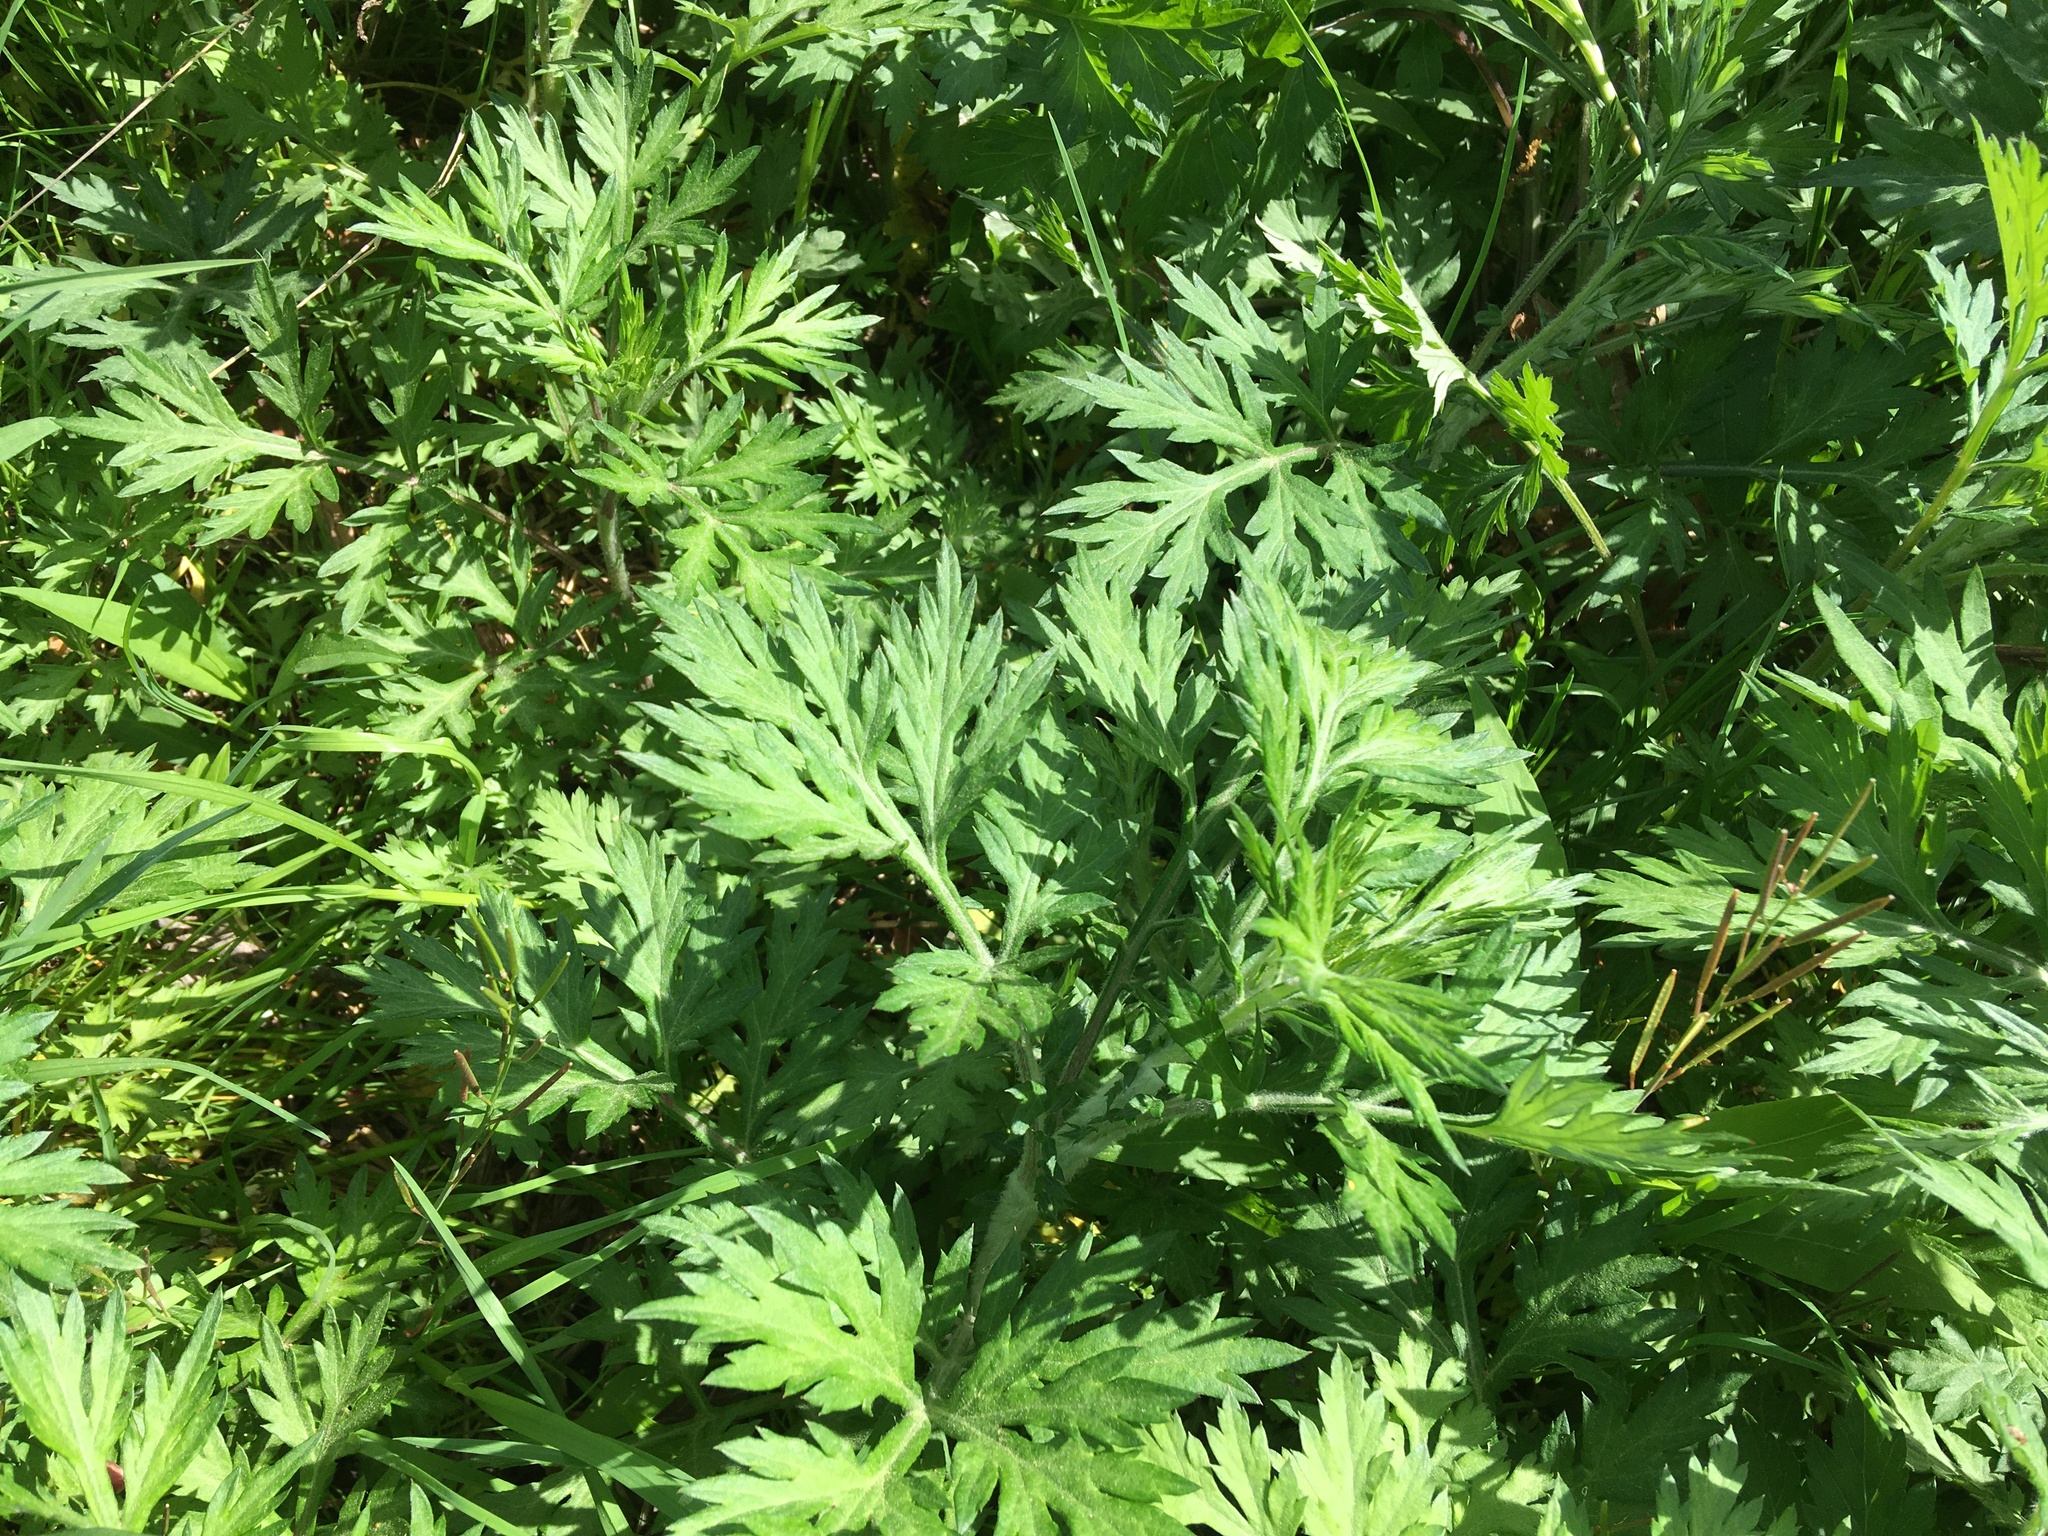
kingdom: Plantae
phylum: Tracheophyta
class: Magnoliopsida
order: Asterales
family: Asteraceae
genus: Artemisia
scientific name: Artemisia vulgaris
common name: Mugwort
